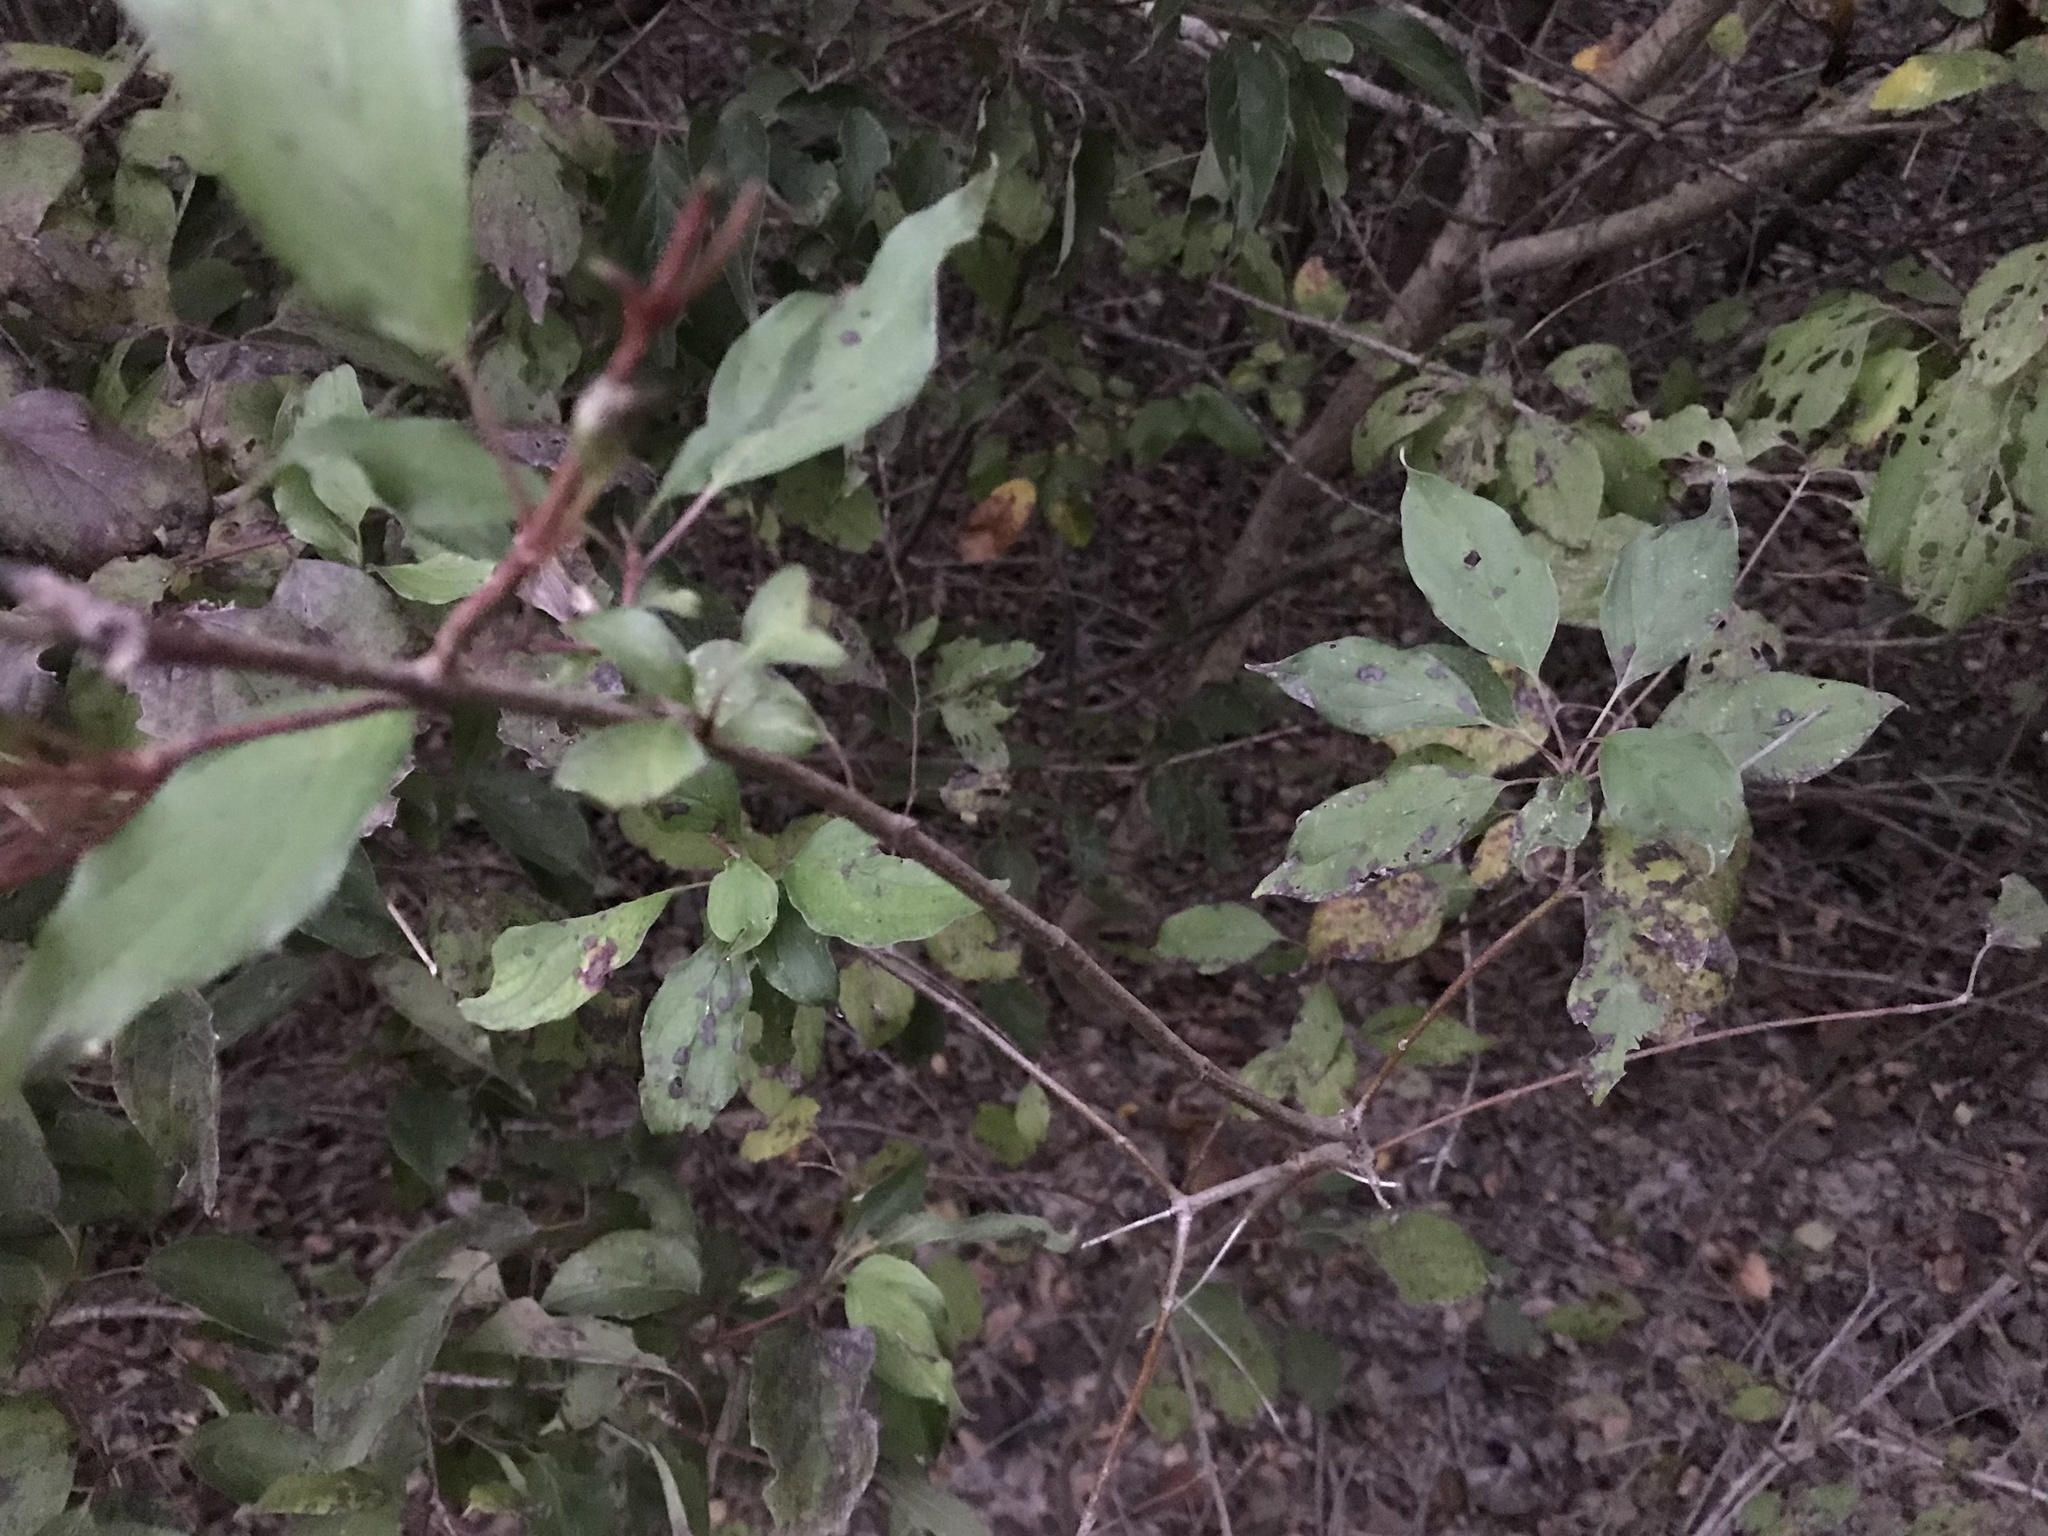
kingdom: Plantae
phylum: Tracheophyta
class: Magnoliopsida
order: Cornales
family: Cornaceae
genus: Cornus
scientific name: Cornus drummondii
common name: Rough-leaf dogwood
